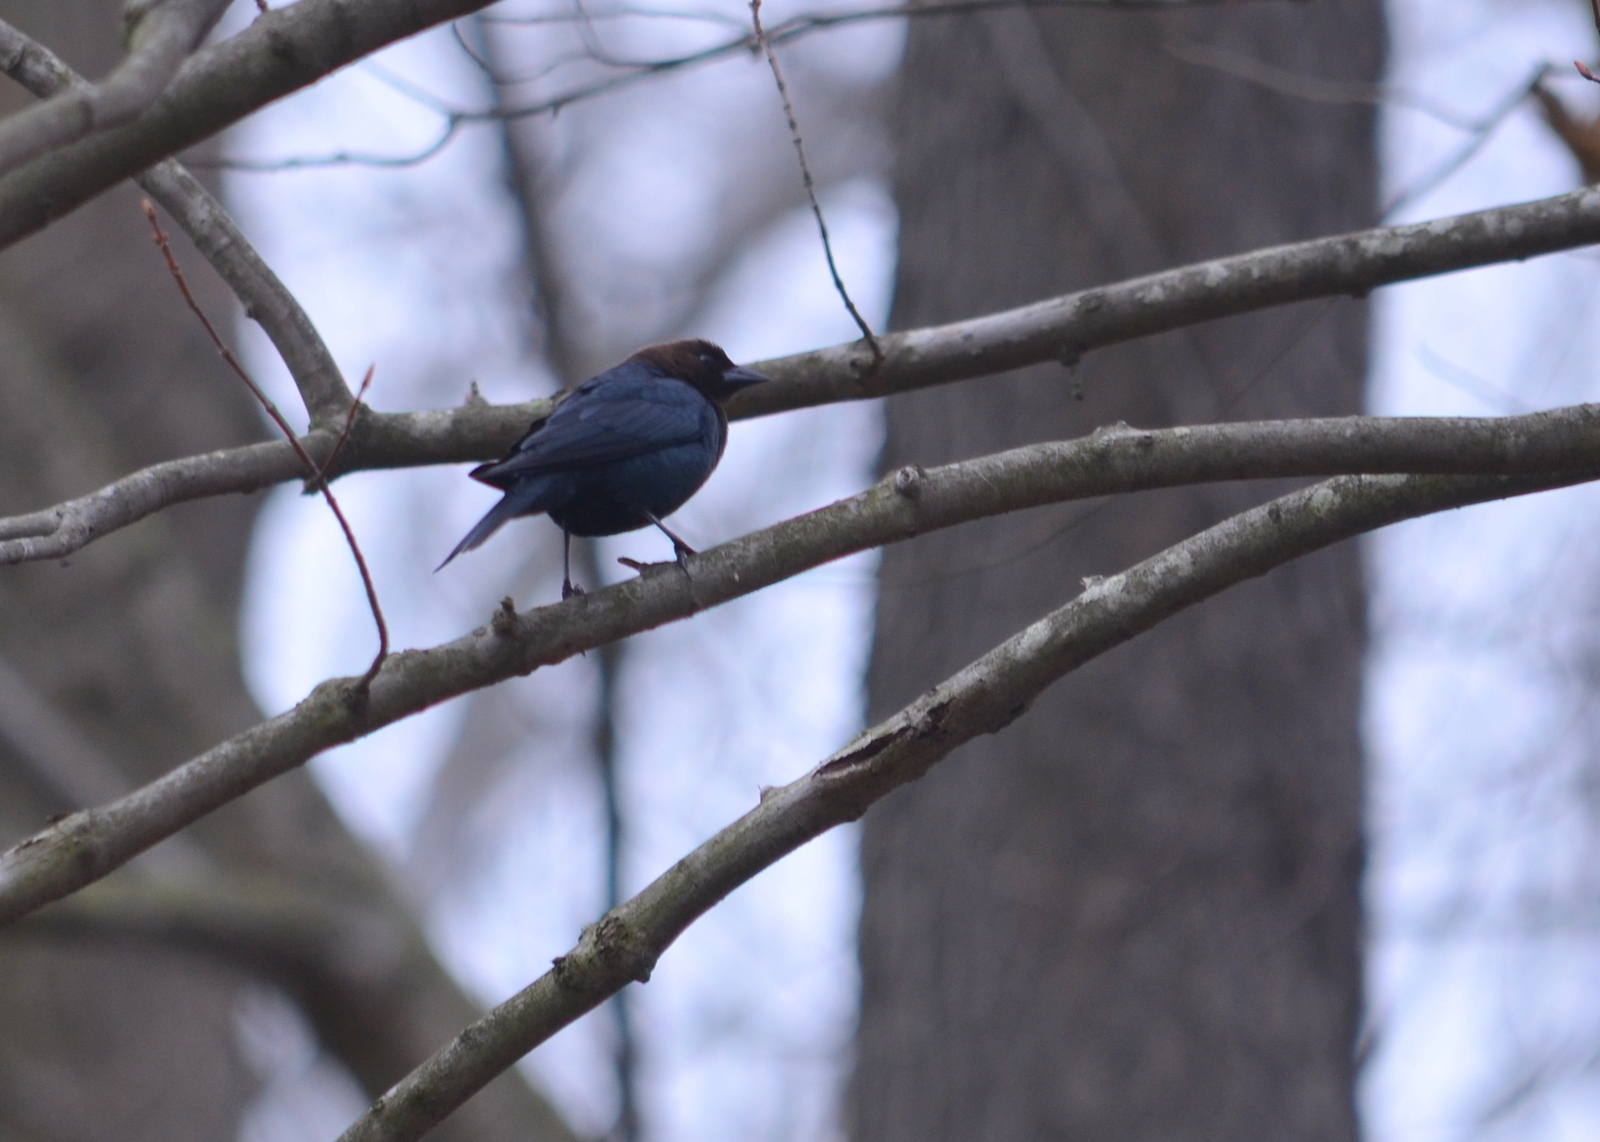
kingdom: Animalia
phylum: Chordata
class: Aves
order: Passeriformes
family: Icteridae
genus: Molothrus
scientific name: Molothrus ater
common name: Brown-headed cowbird
